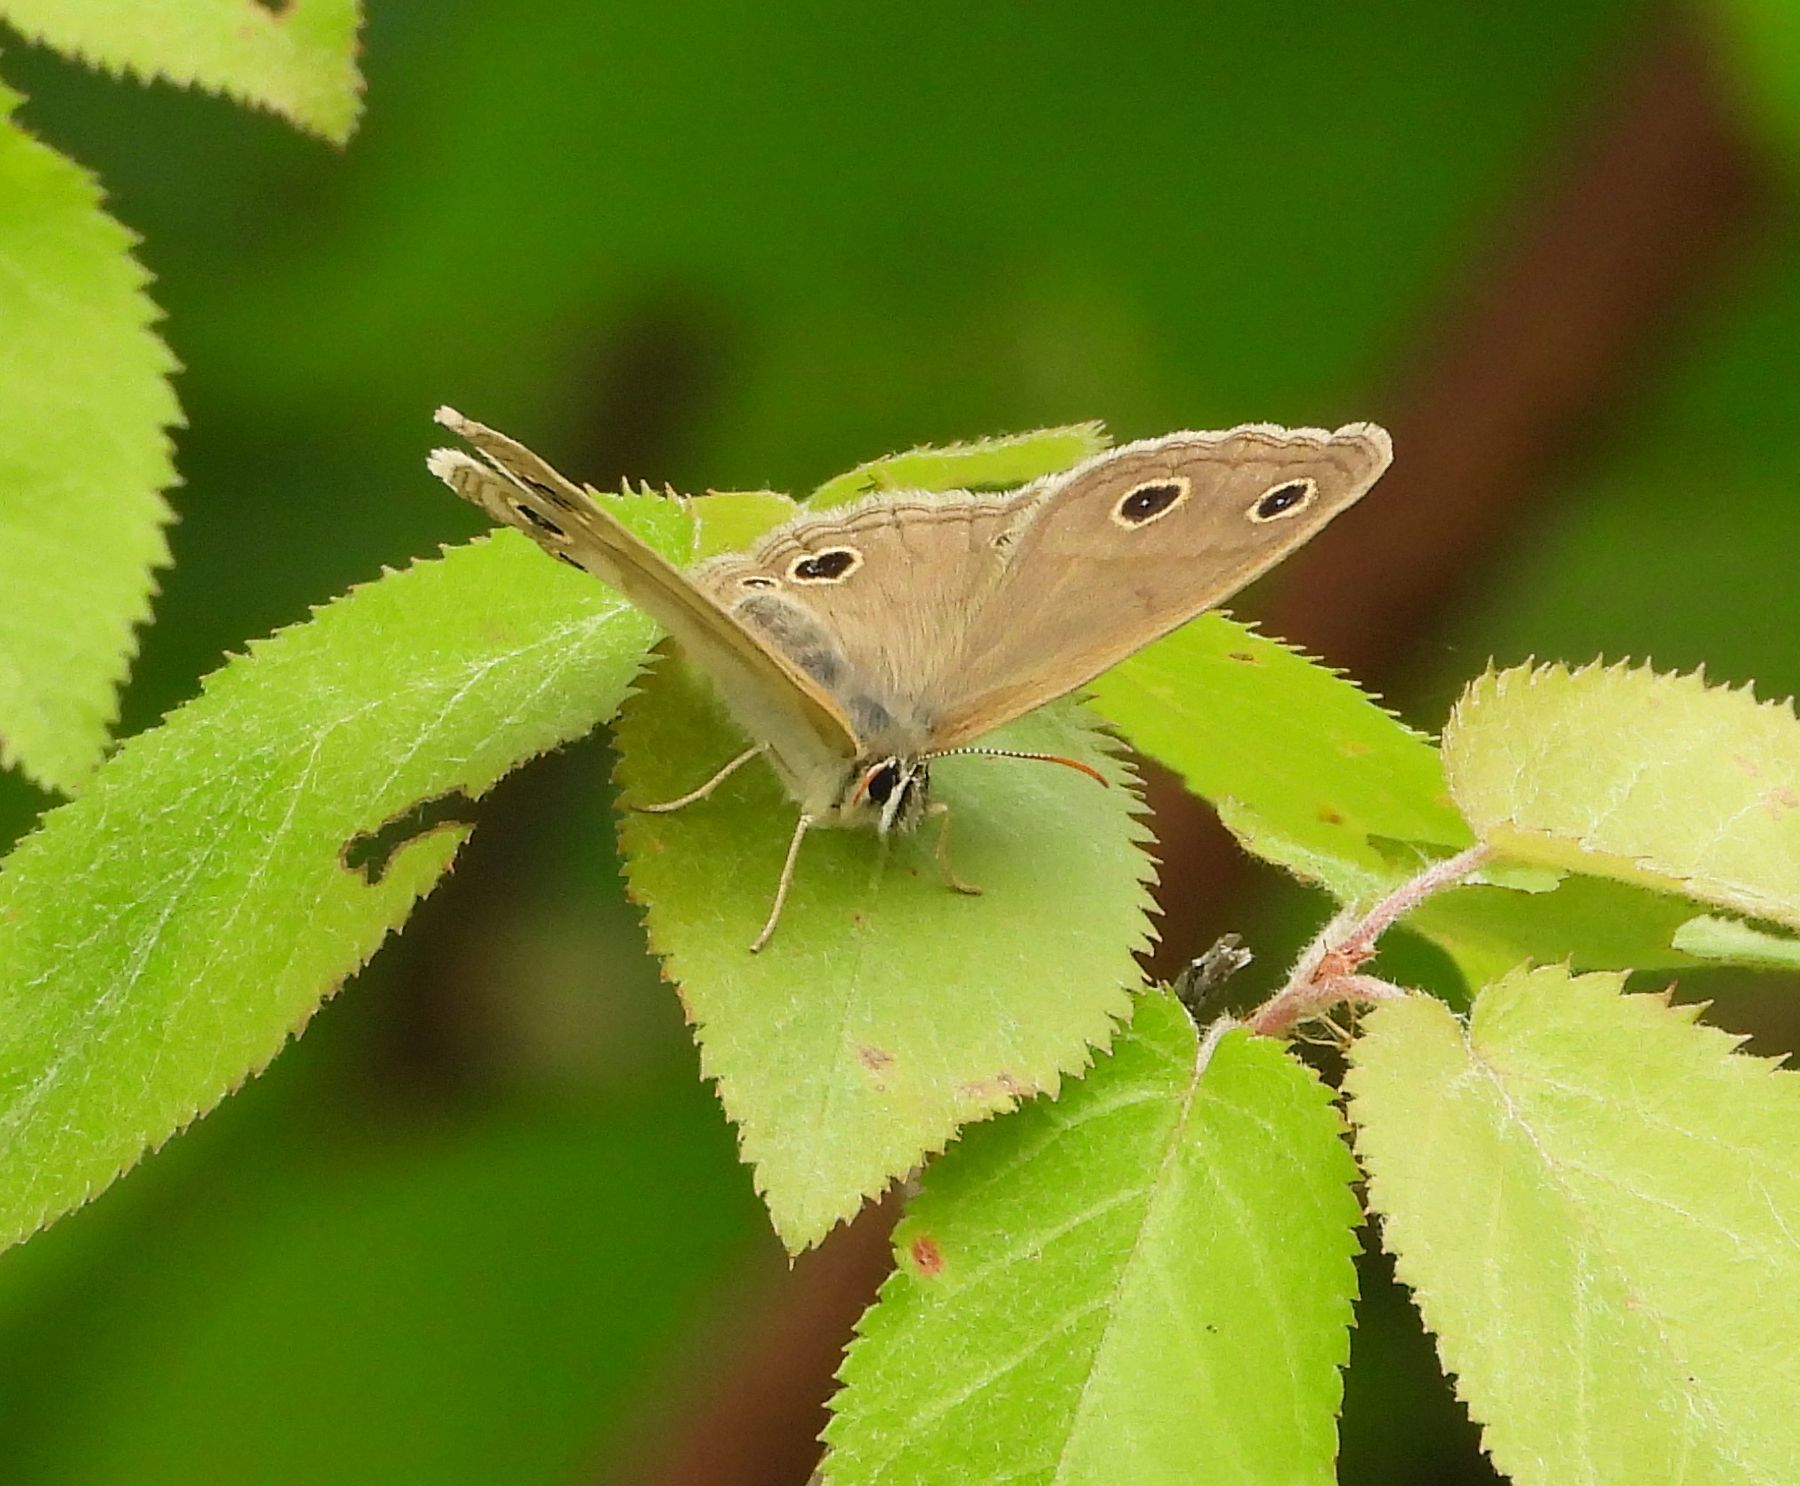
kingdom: Animalia
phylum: Arthropoda
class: Insecta
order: Lepidoptera
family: Nymphalidae
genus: Euptychia
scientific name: Euptychia cymela
